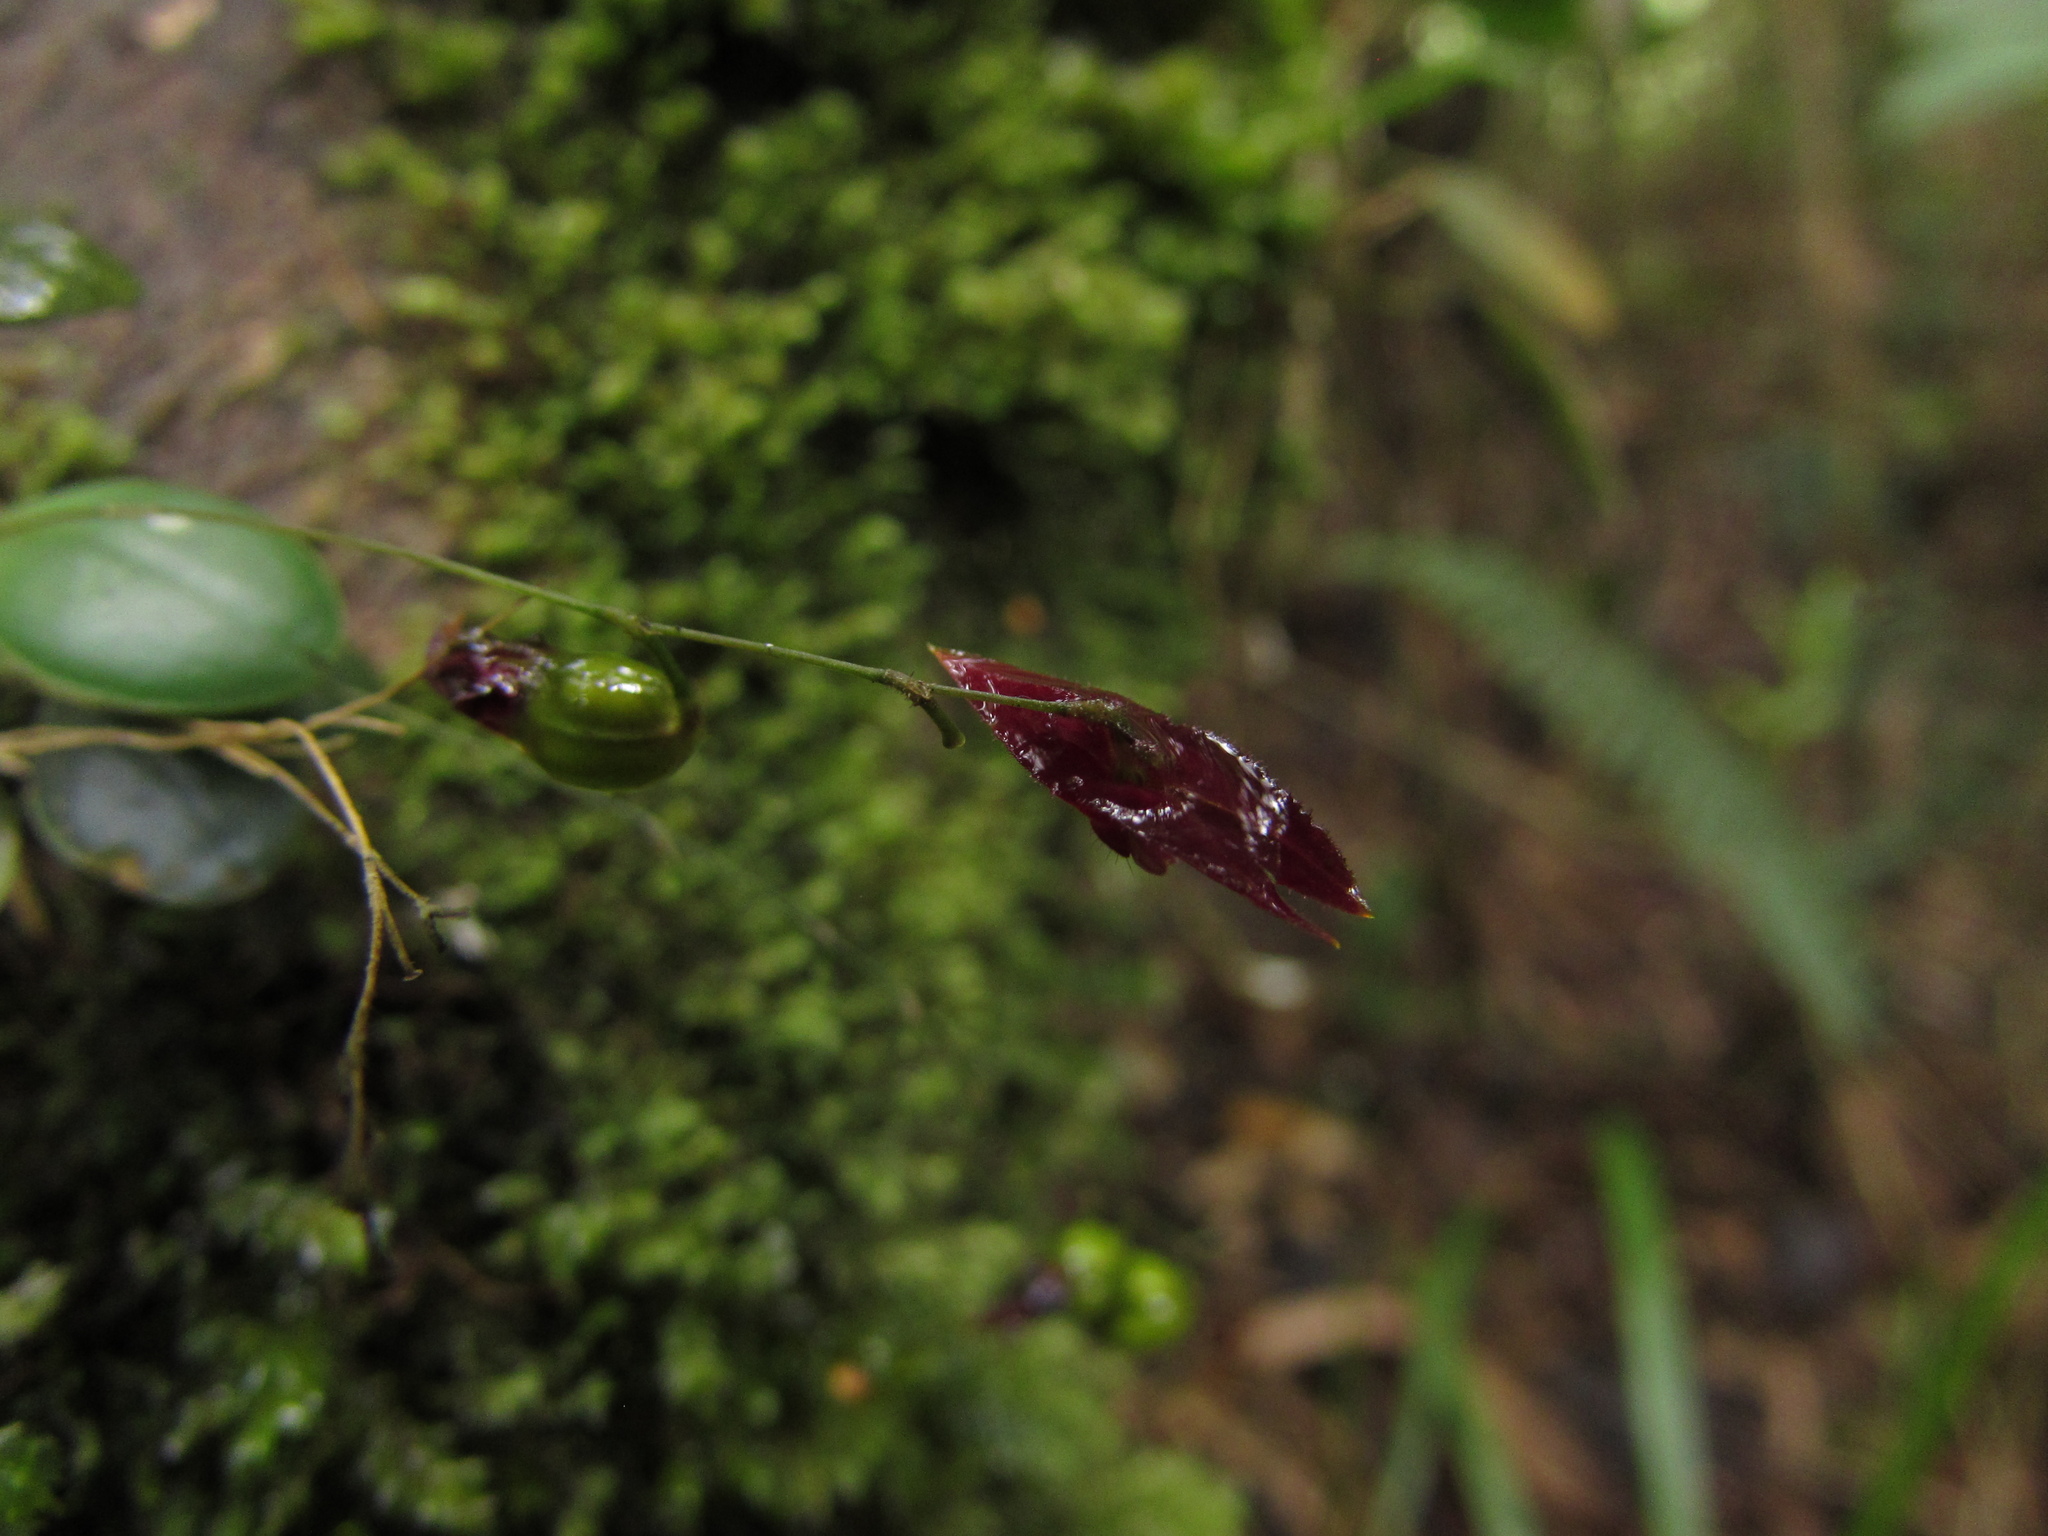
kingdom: Plantae
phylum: Tracheophyta
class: Liliopsida
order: Asparagales
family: Orchidaceae
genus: Lepanthes
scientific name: Lepanthes lingulosa
